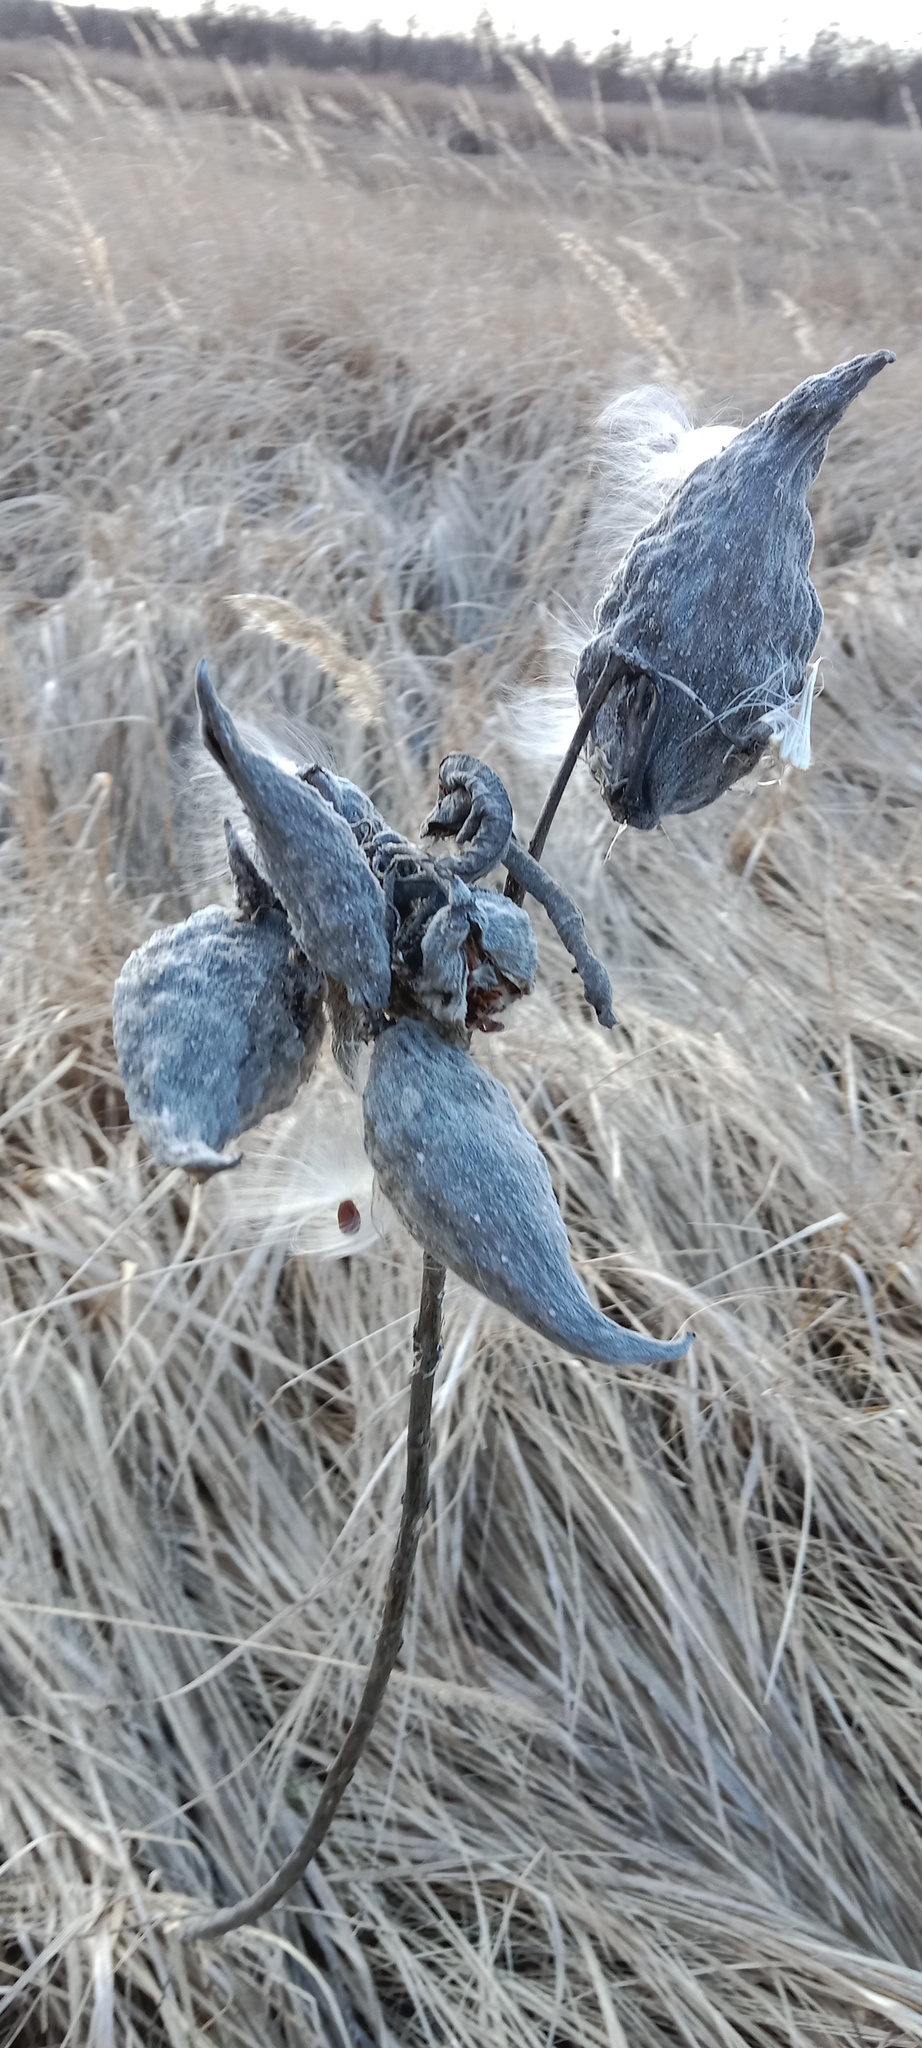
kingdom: Plantae
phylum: Tracheophyta
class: Magnoliopsida
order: Gentianales
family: Apocynaceae
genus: Asclepias
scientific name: Asclepias syriaca
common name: Common milkweed
